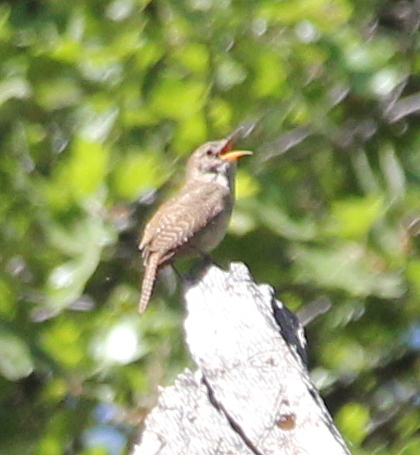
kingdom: Animalia
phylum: Chordata
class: Aves
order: Passeriformes
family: Troglodytidae
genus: Troglodytes
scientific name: Troglodytes aedon
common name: House wren
